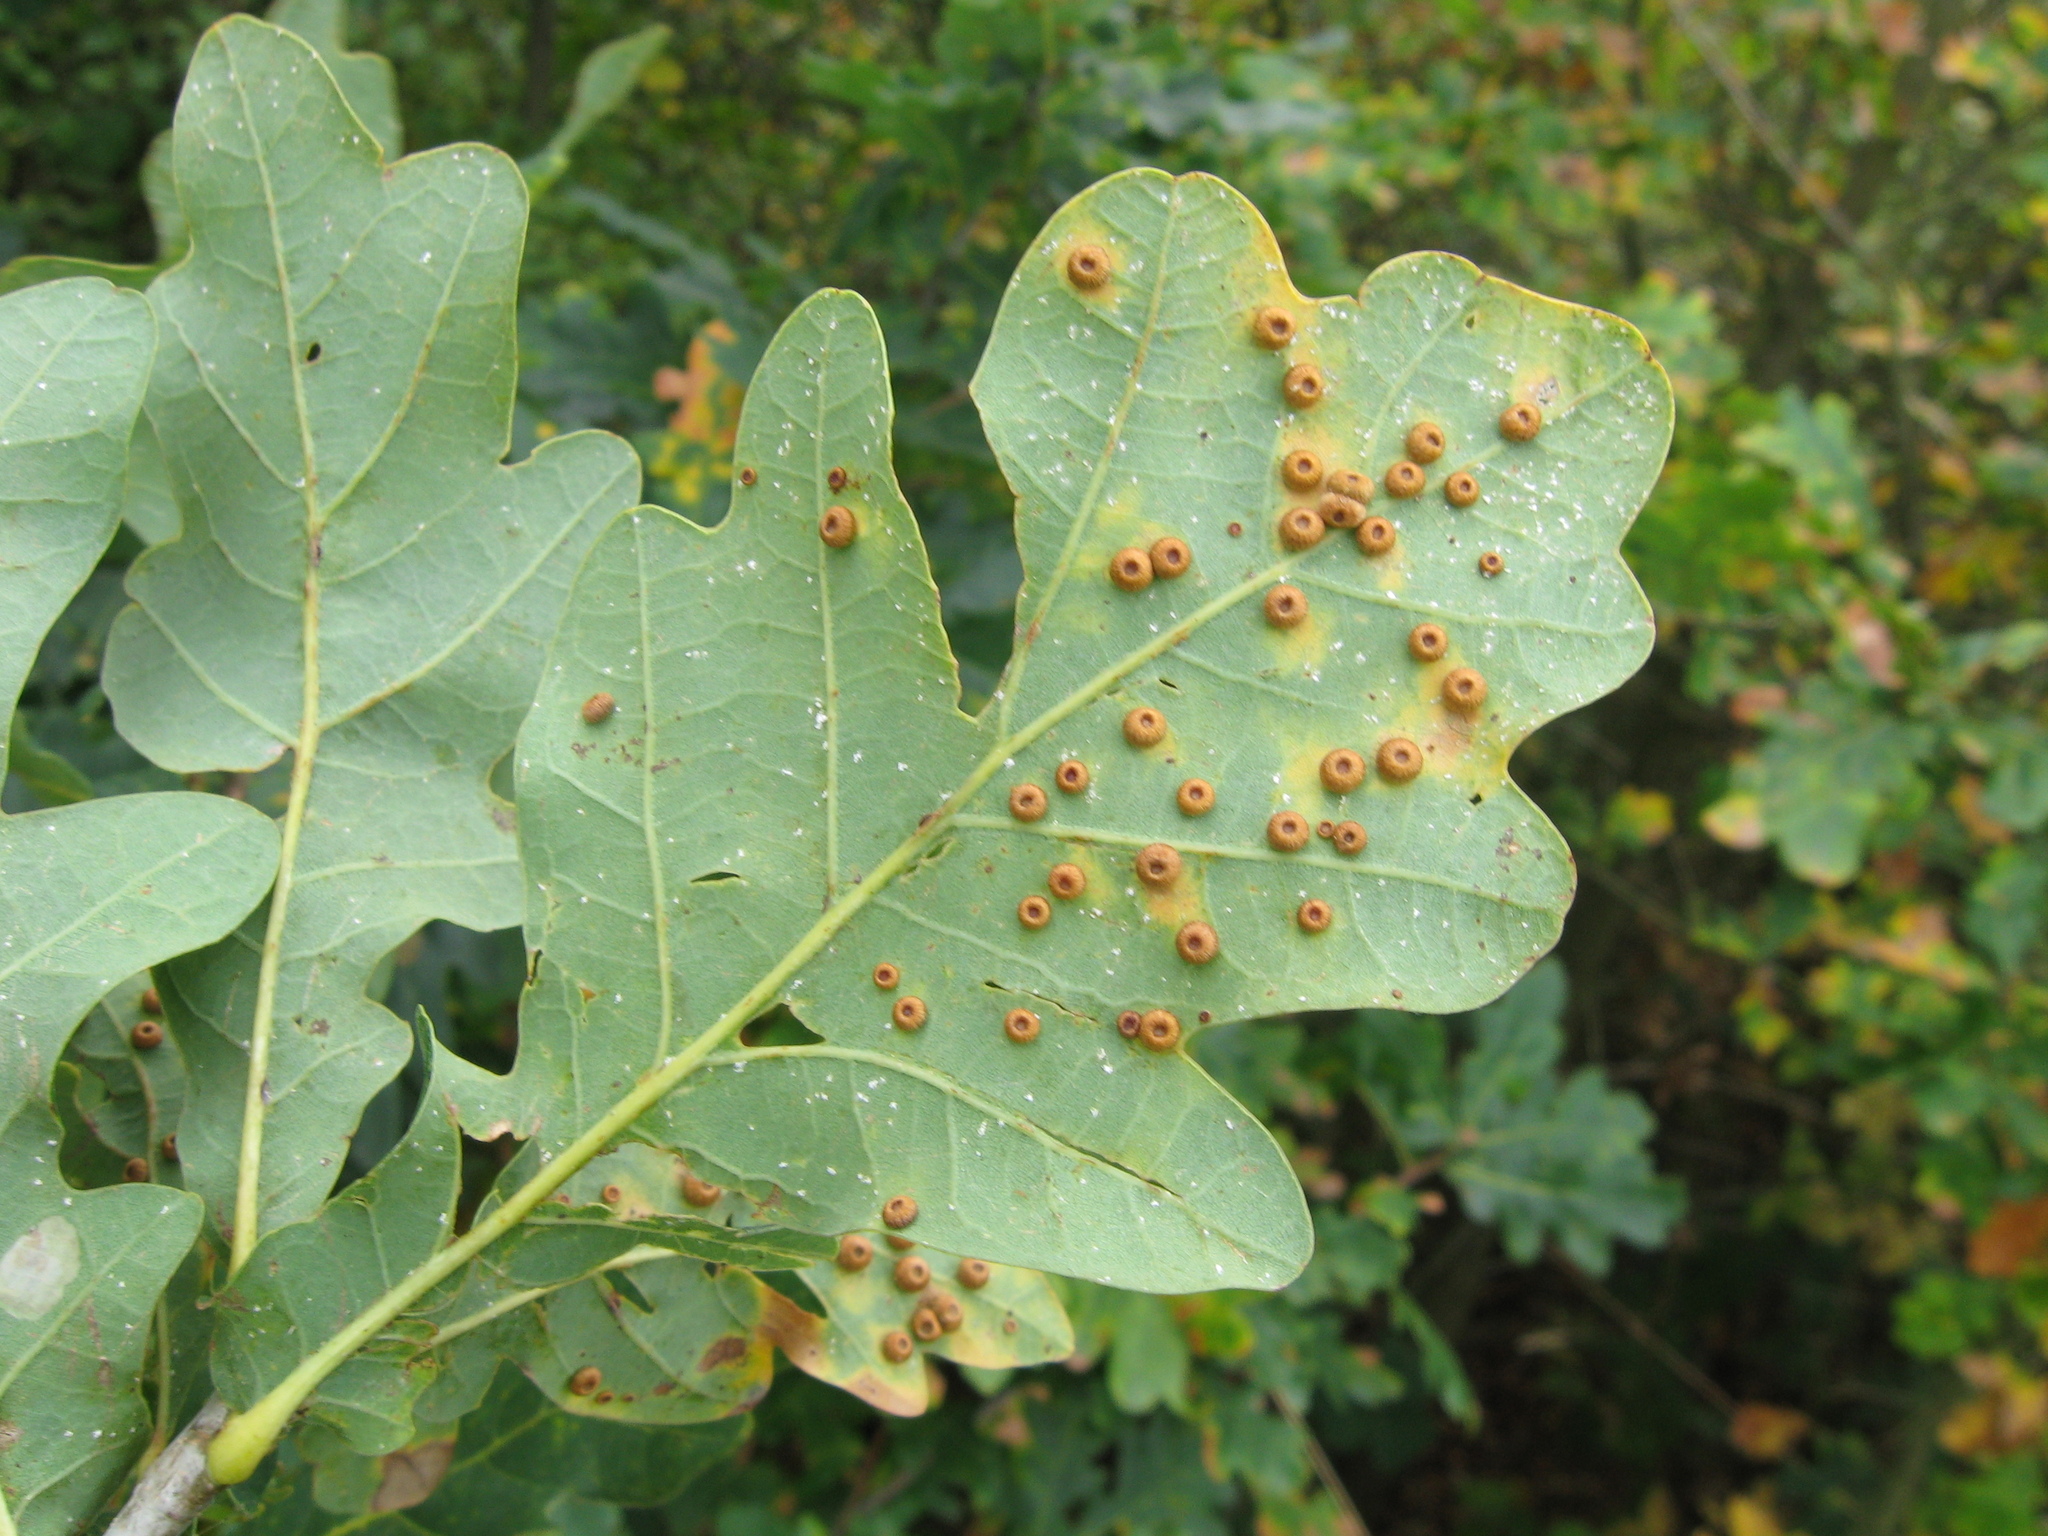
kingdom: Animalia
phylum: Arthropoda
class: Insecta
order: Hymenoptera
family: Cynipidae
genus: Neuroterus
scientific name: Neuroterus numismalis
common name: Silk-button spangle gall
